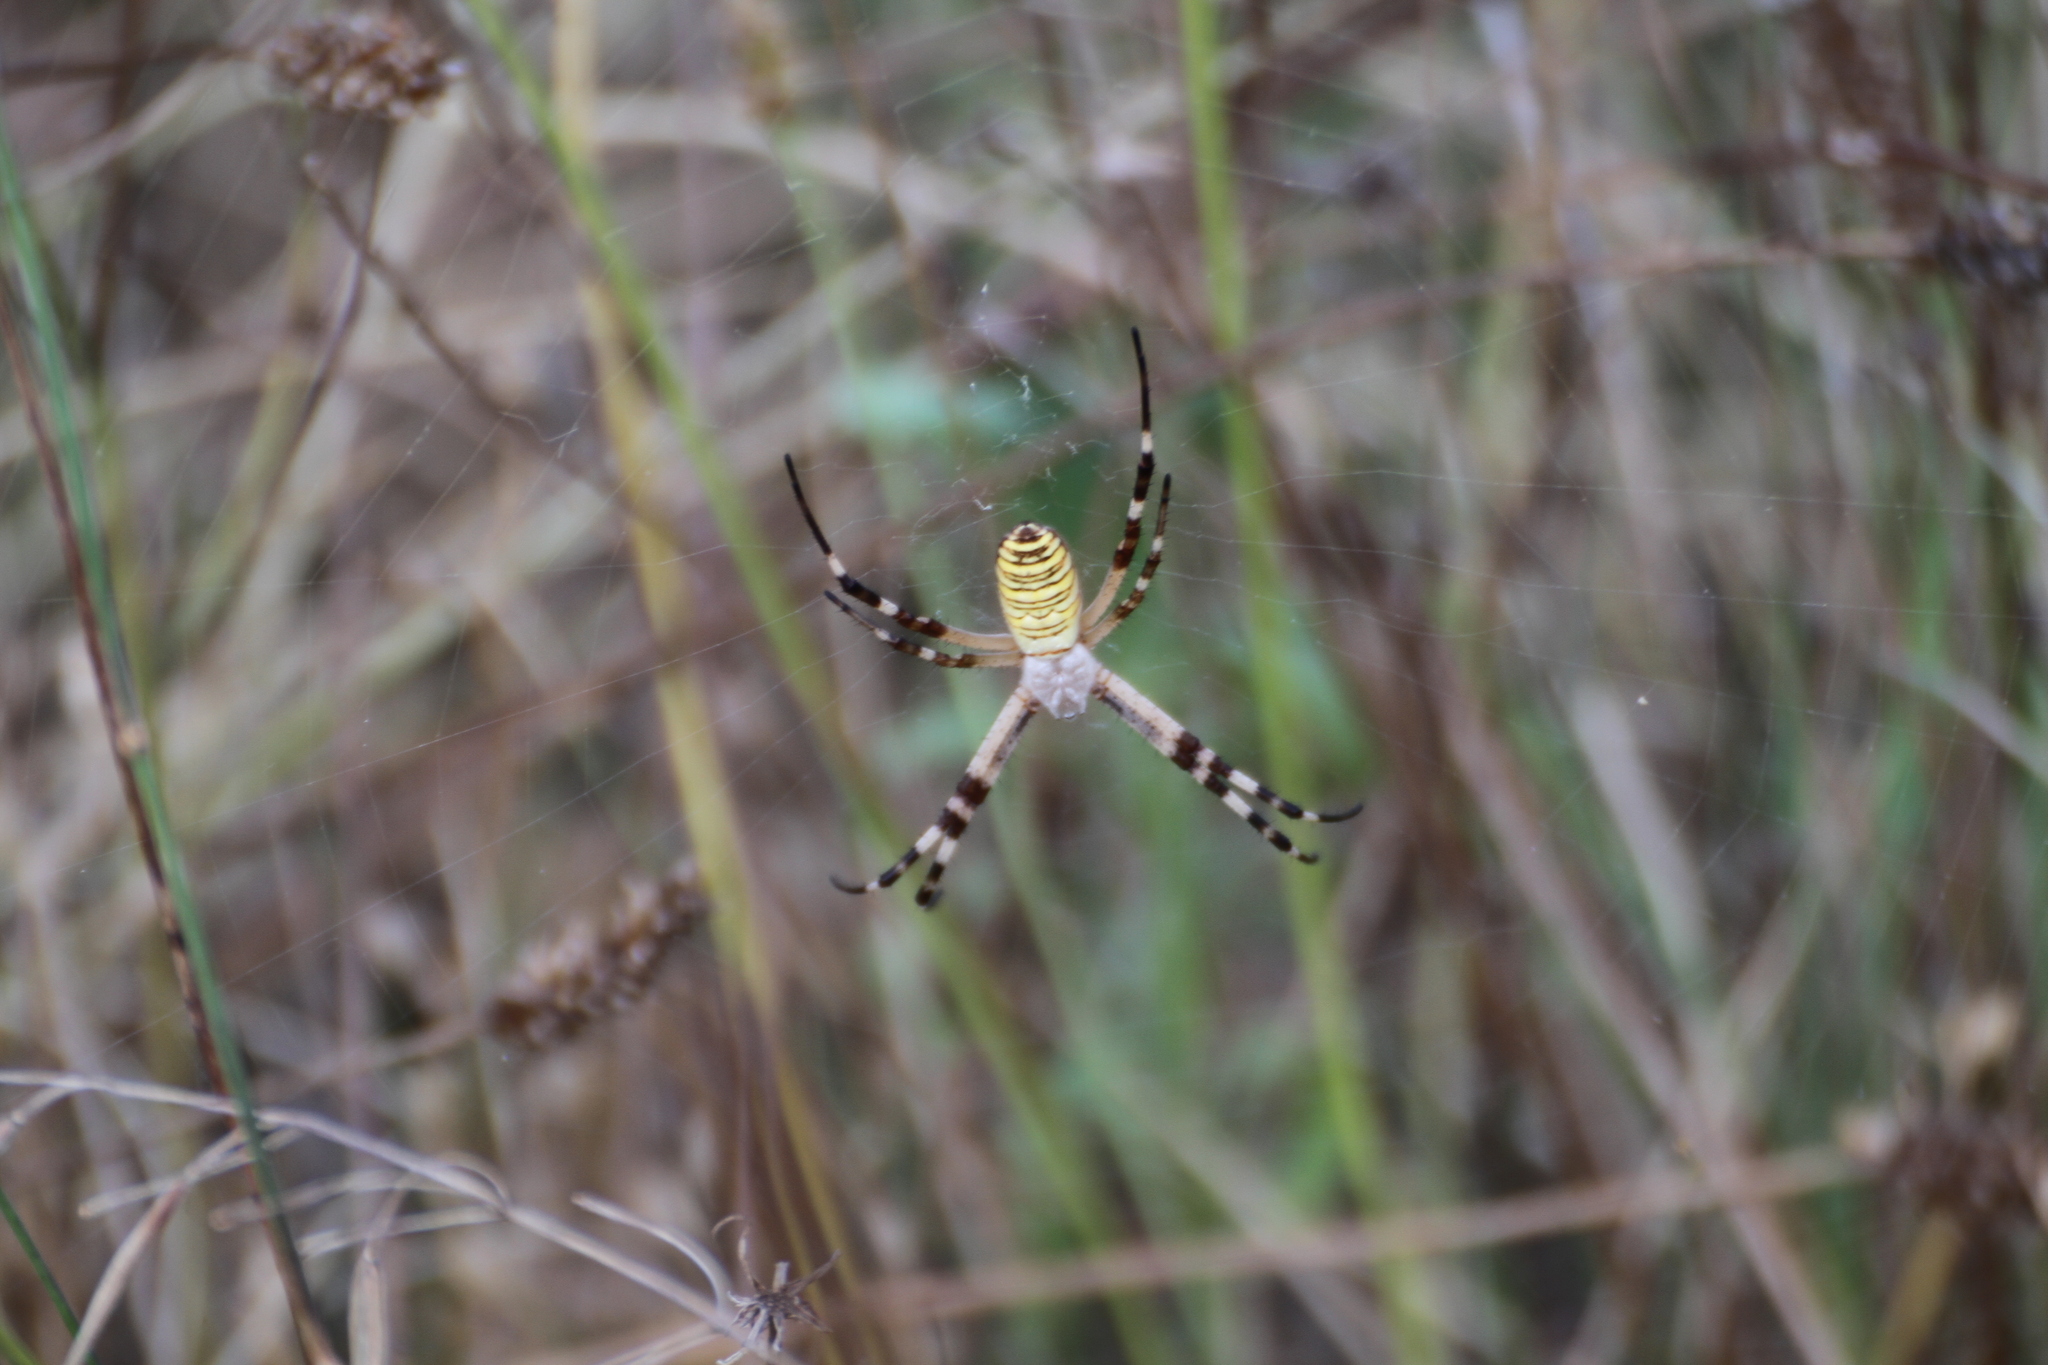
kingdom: Animalia
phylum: Arthropoda
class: Arachnida
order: Araneae
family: Araneidae
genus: Argiope
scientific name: Argiope bruennichi
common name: Wasp spider
